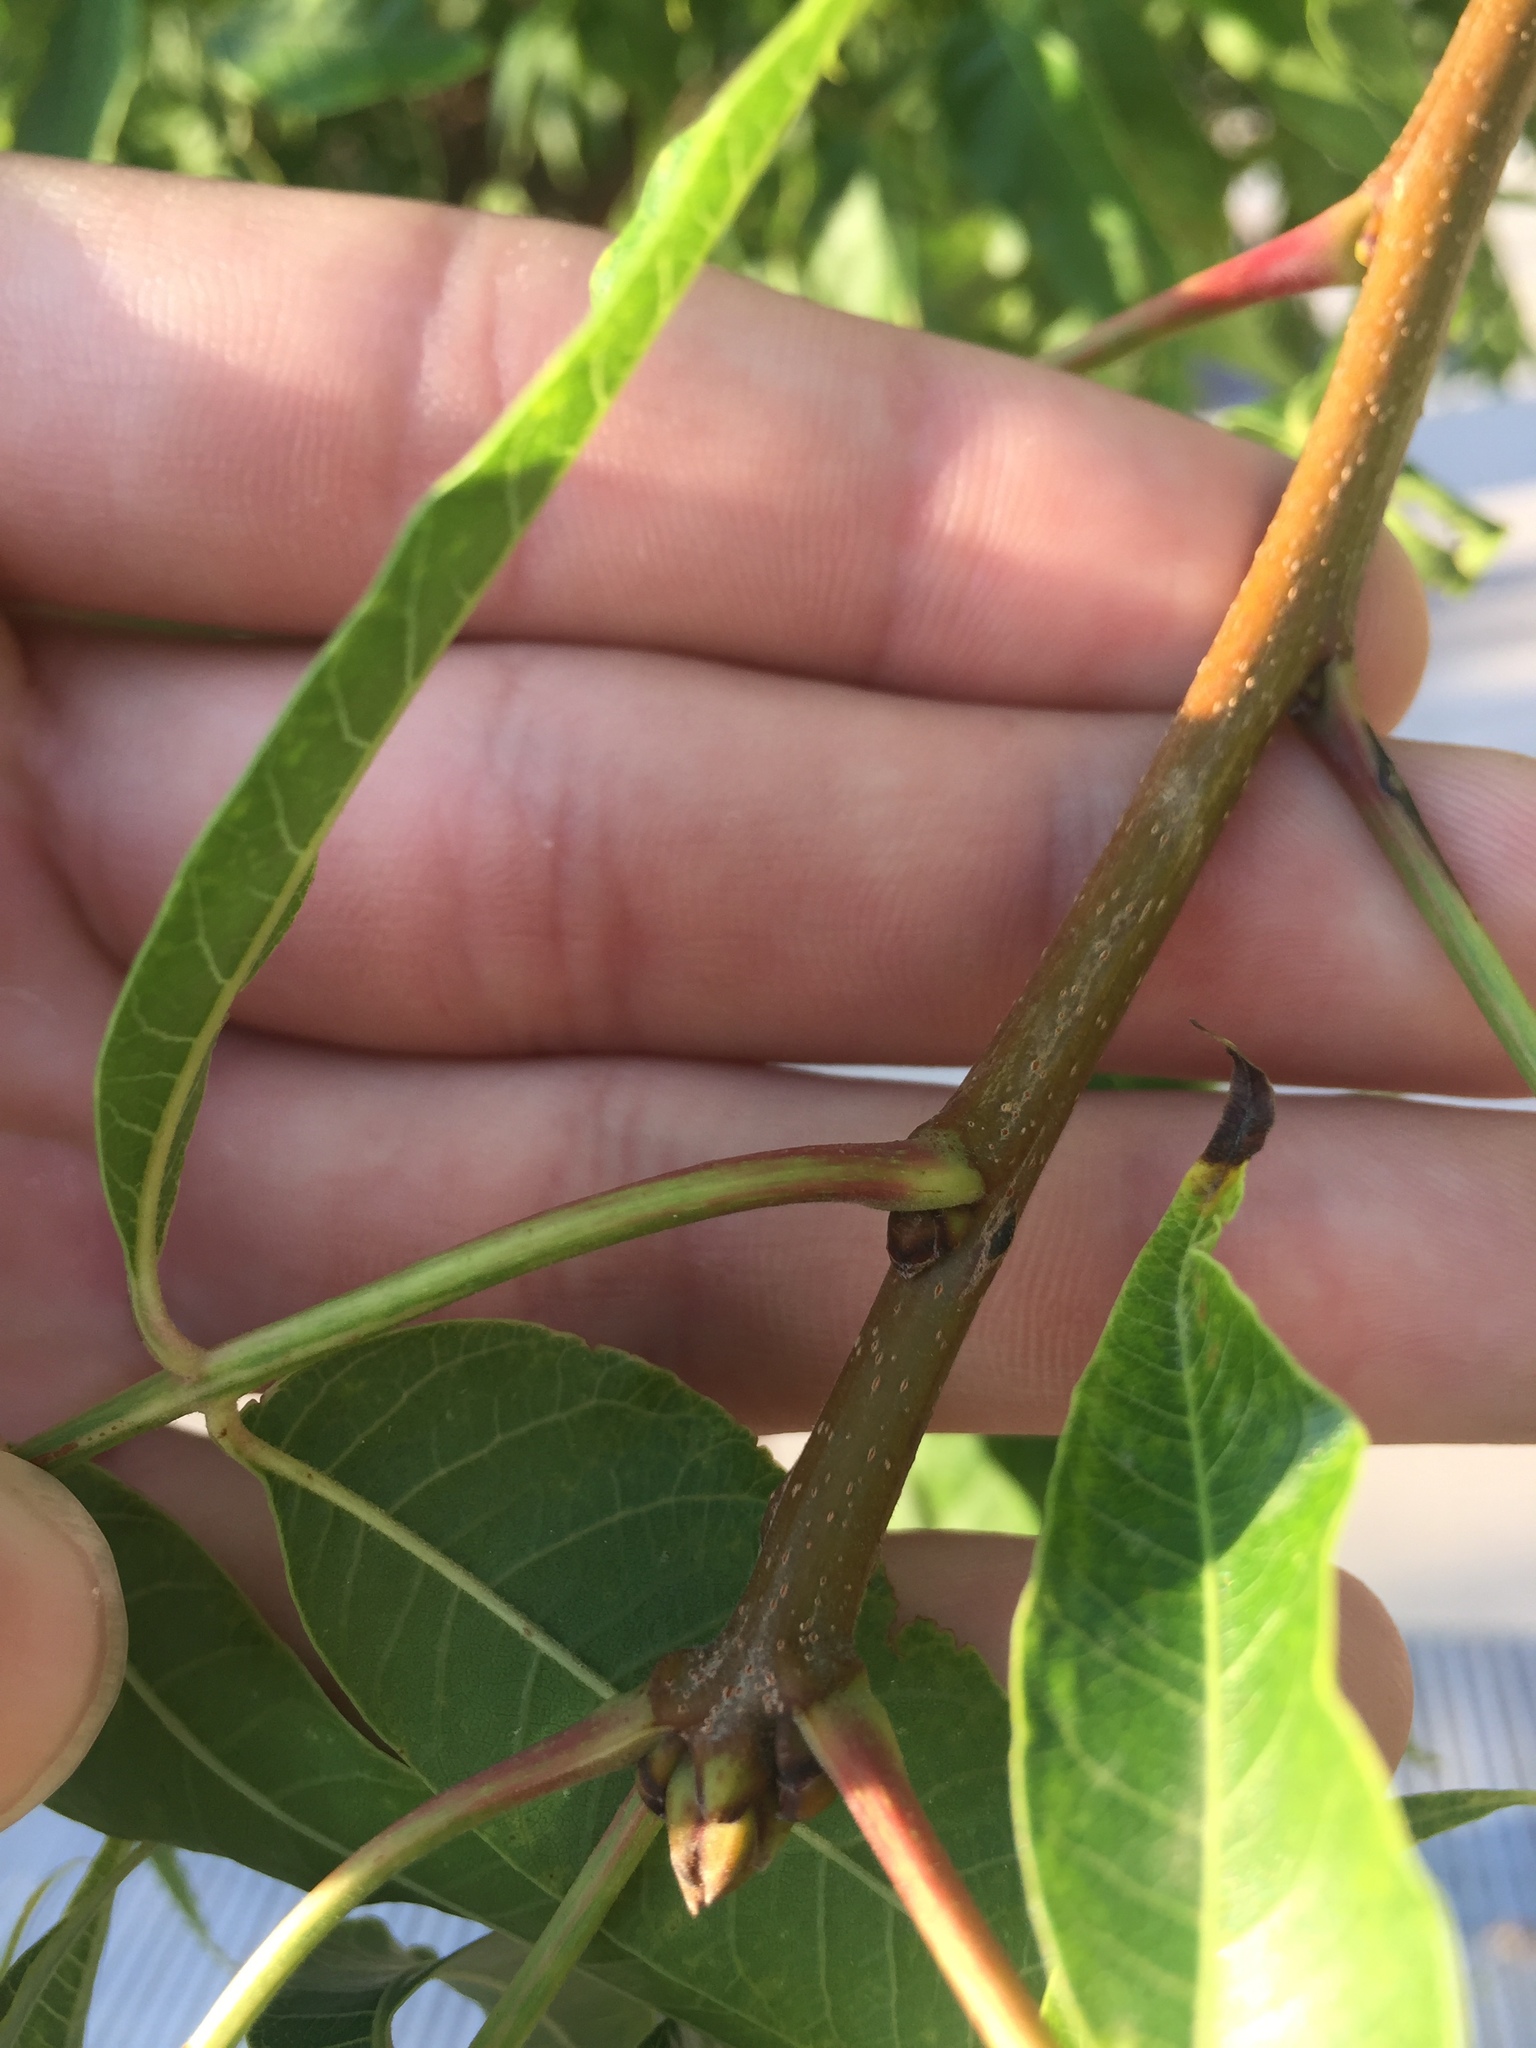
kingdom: Plantae
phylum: Tracheophyta
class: Magnoliopsida
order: Sapindales
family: Anacardiaceae
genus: Pistacia
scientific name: Pistacia chinensis
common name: Chinese pistache
